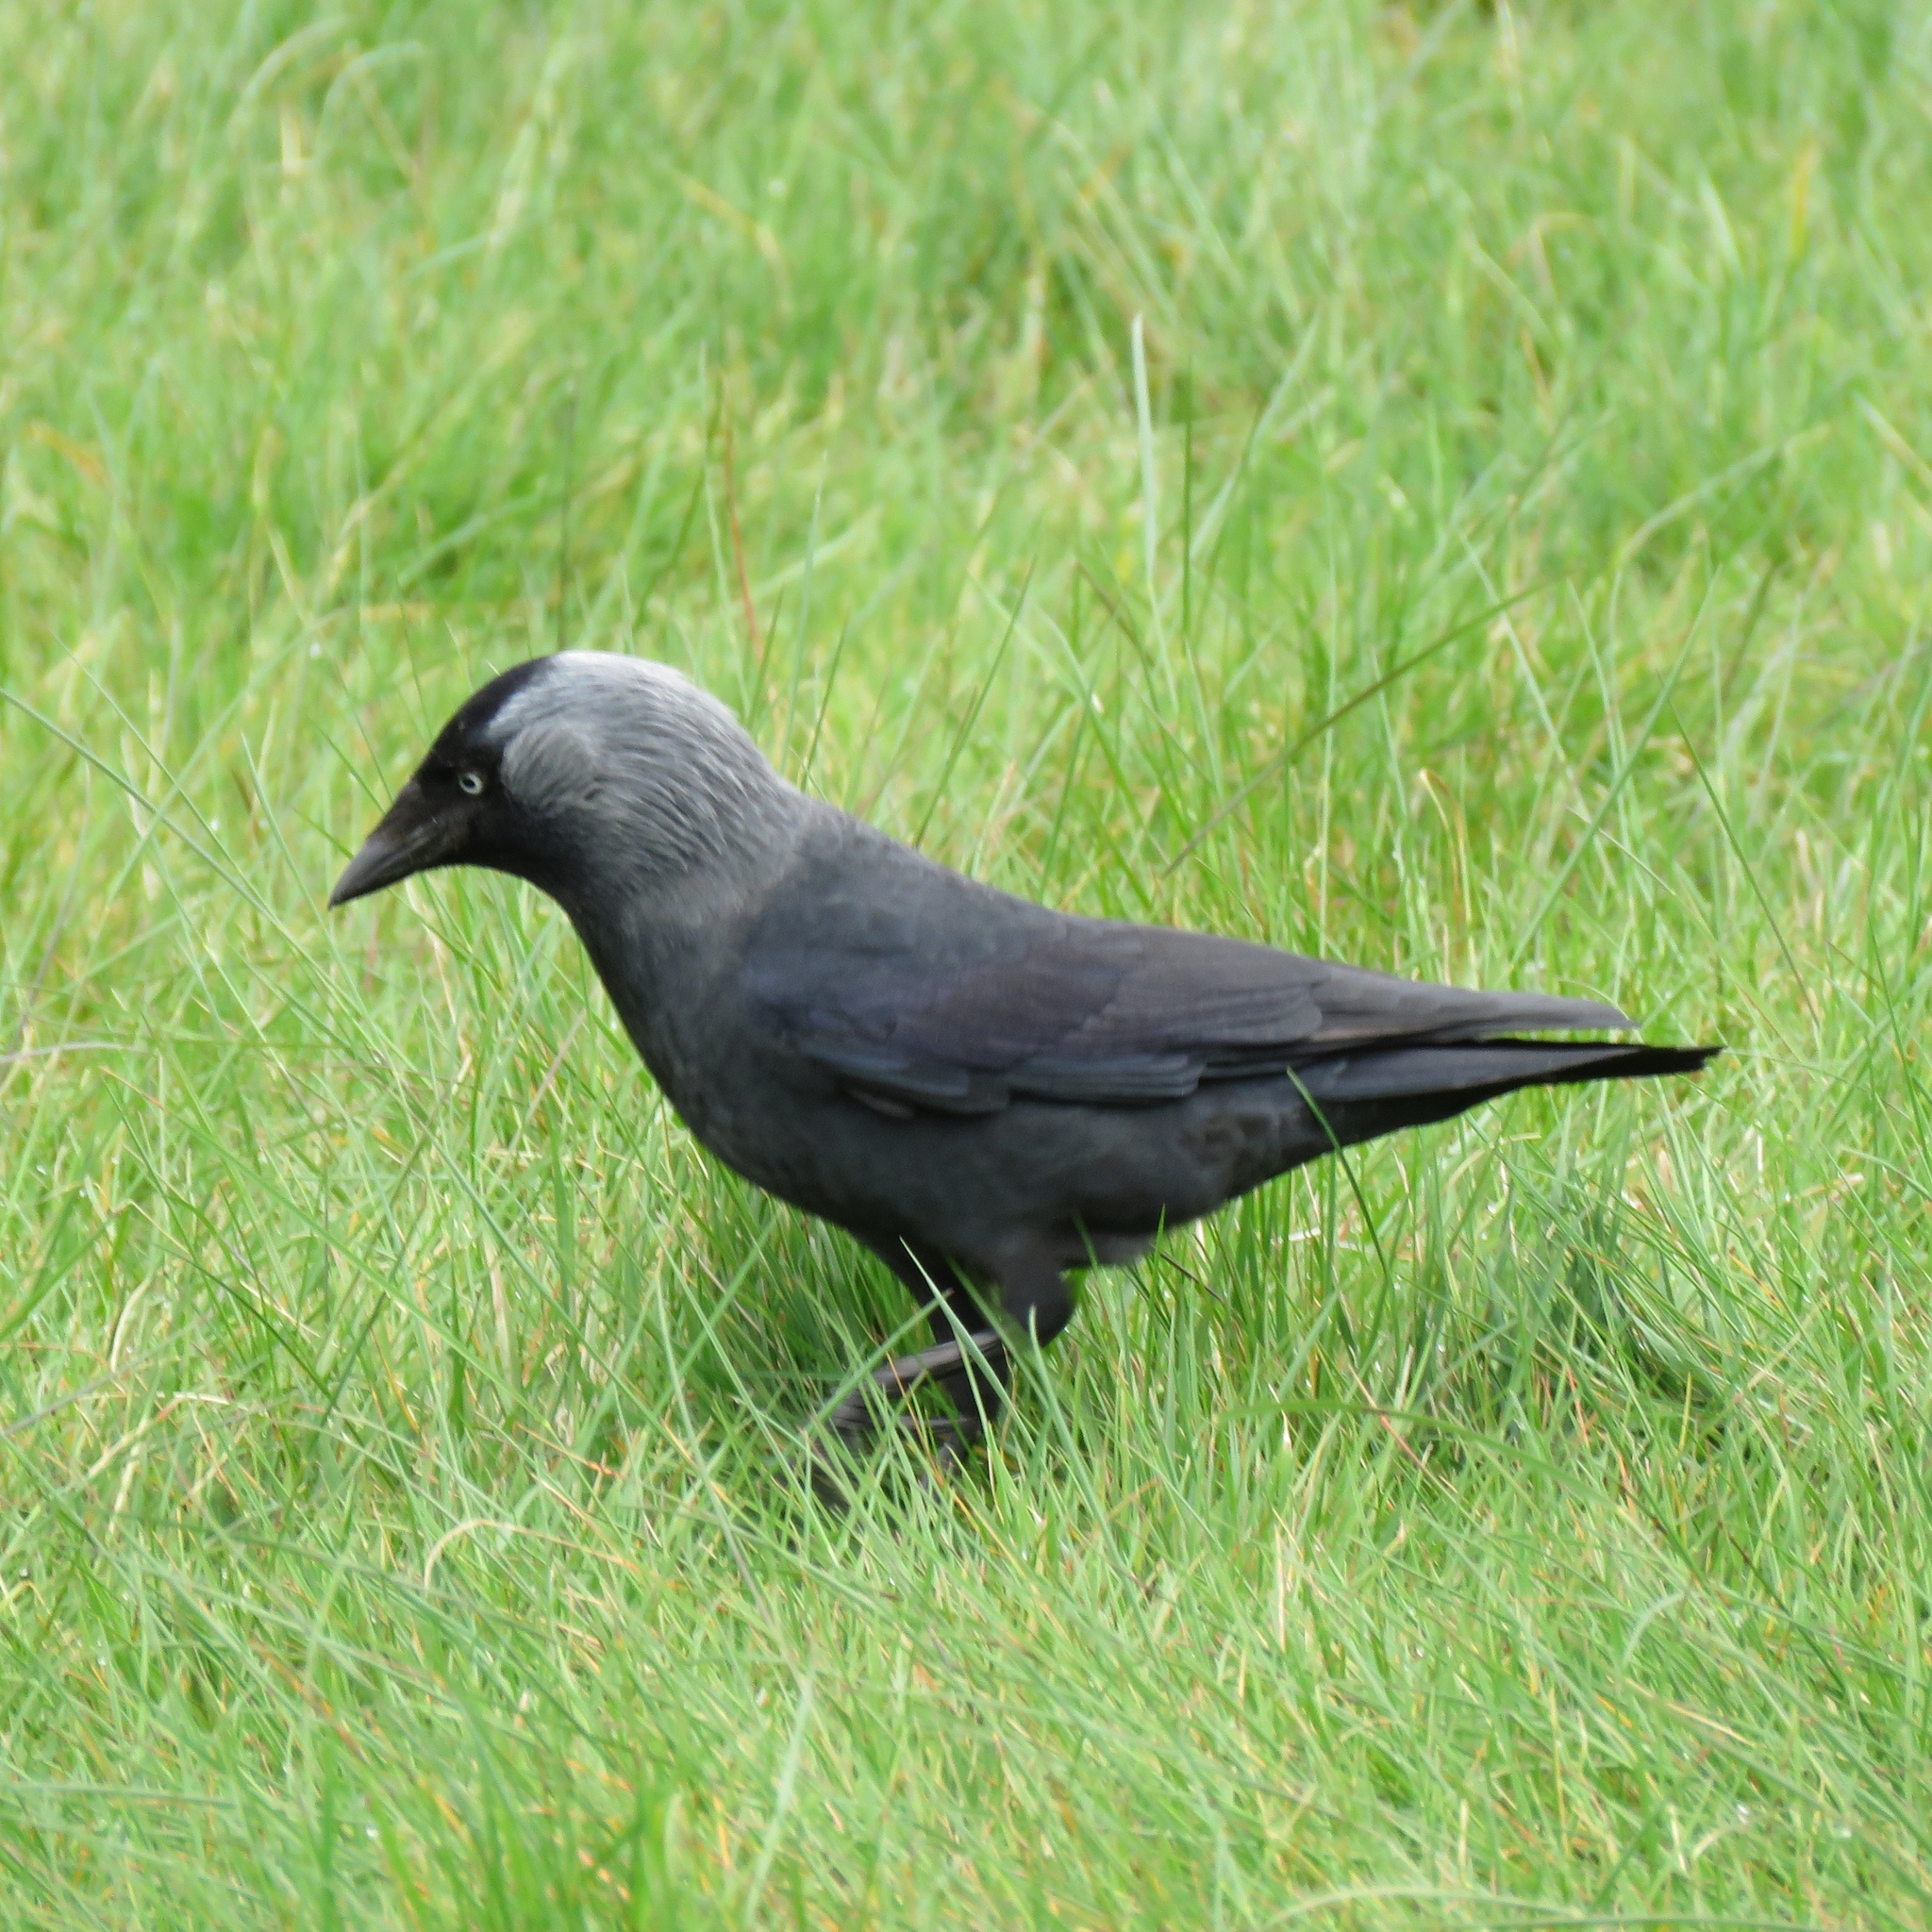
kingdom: Animalia
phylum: Chordata
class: Aves
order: Passeriformes
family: Corvidae
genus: Coloeus
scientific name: Coloeus monedula
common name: Western jackdaw
